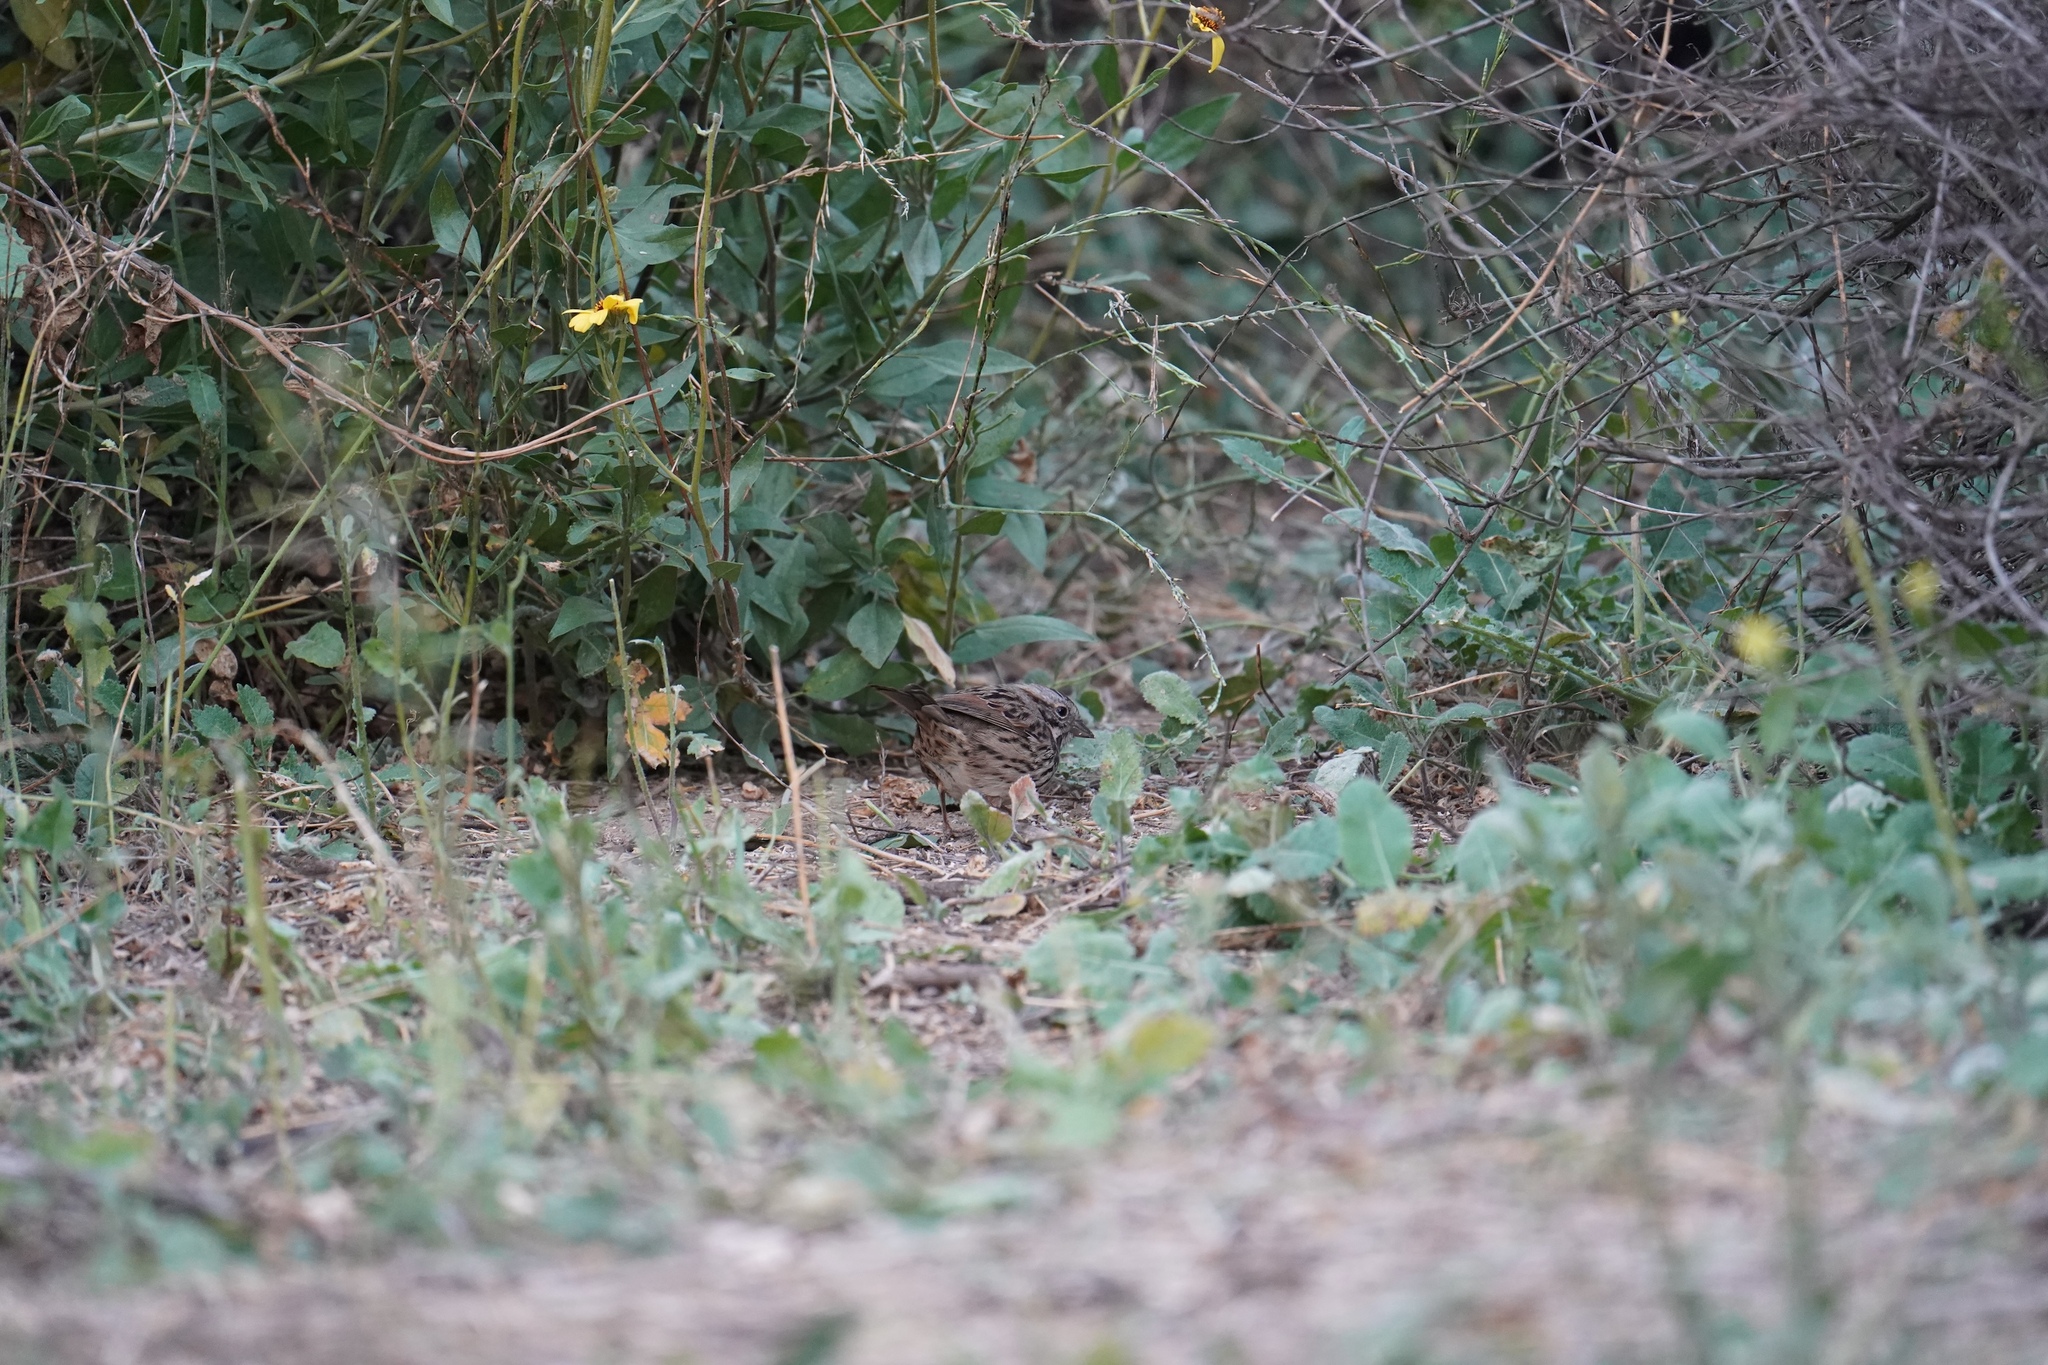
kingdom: Animalia
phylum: Chordata
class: Aves
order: Passeriformes
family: Passerellidae
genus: Melospiza
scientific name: Melospiza melodia
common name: Song sparrow
